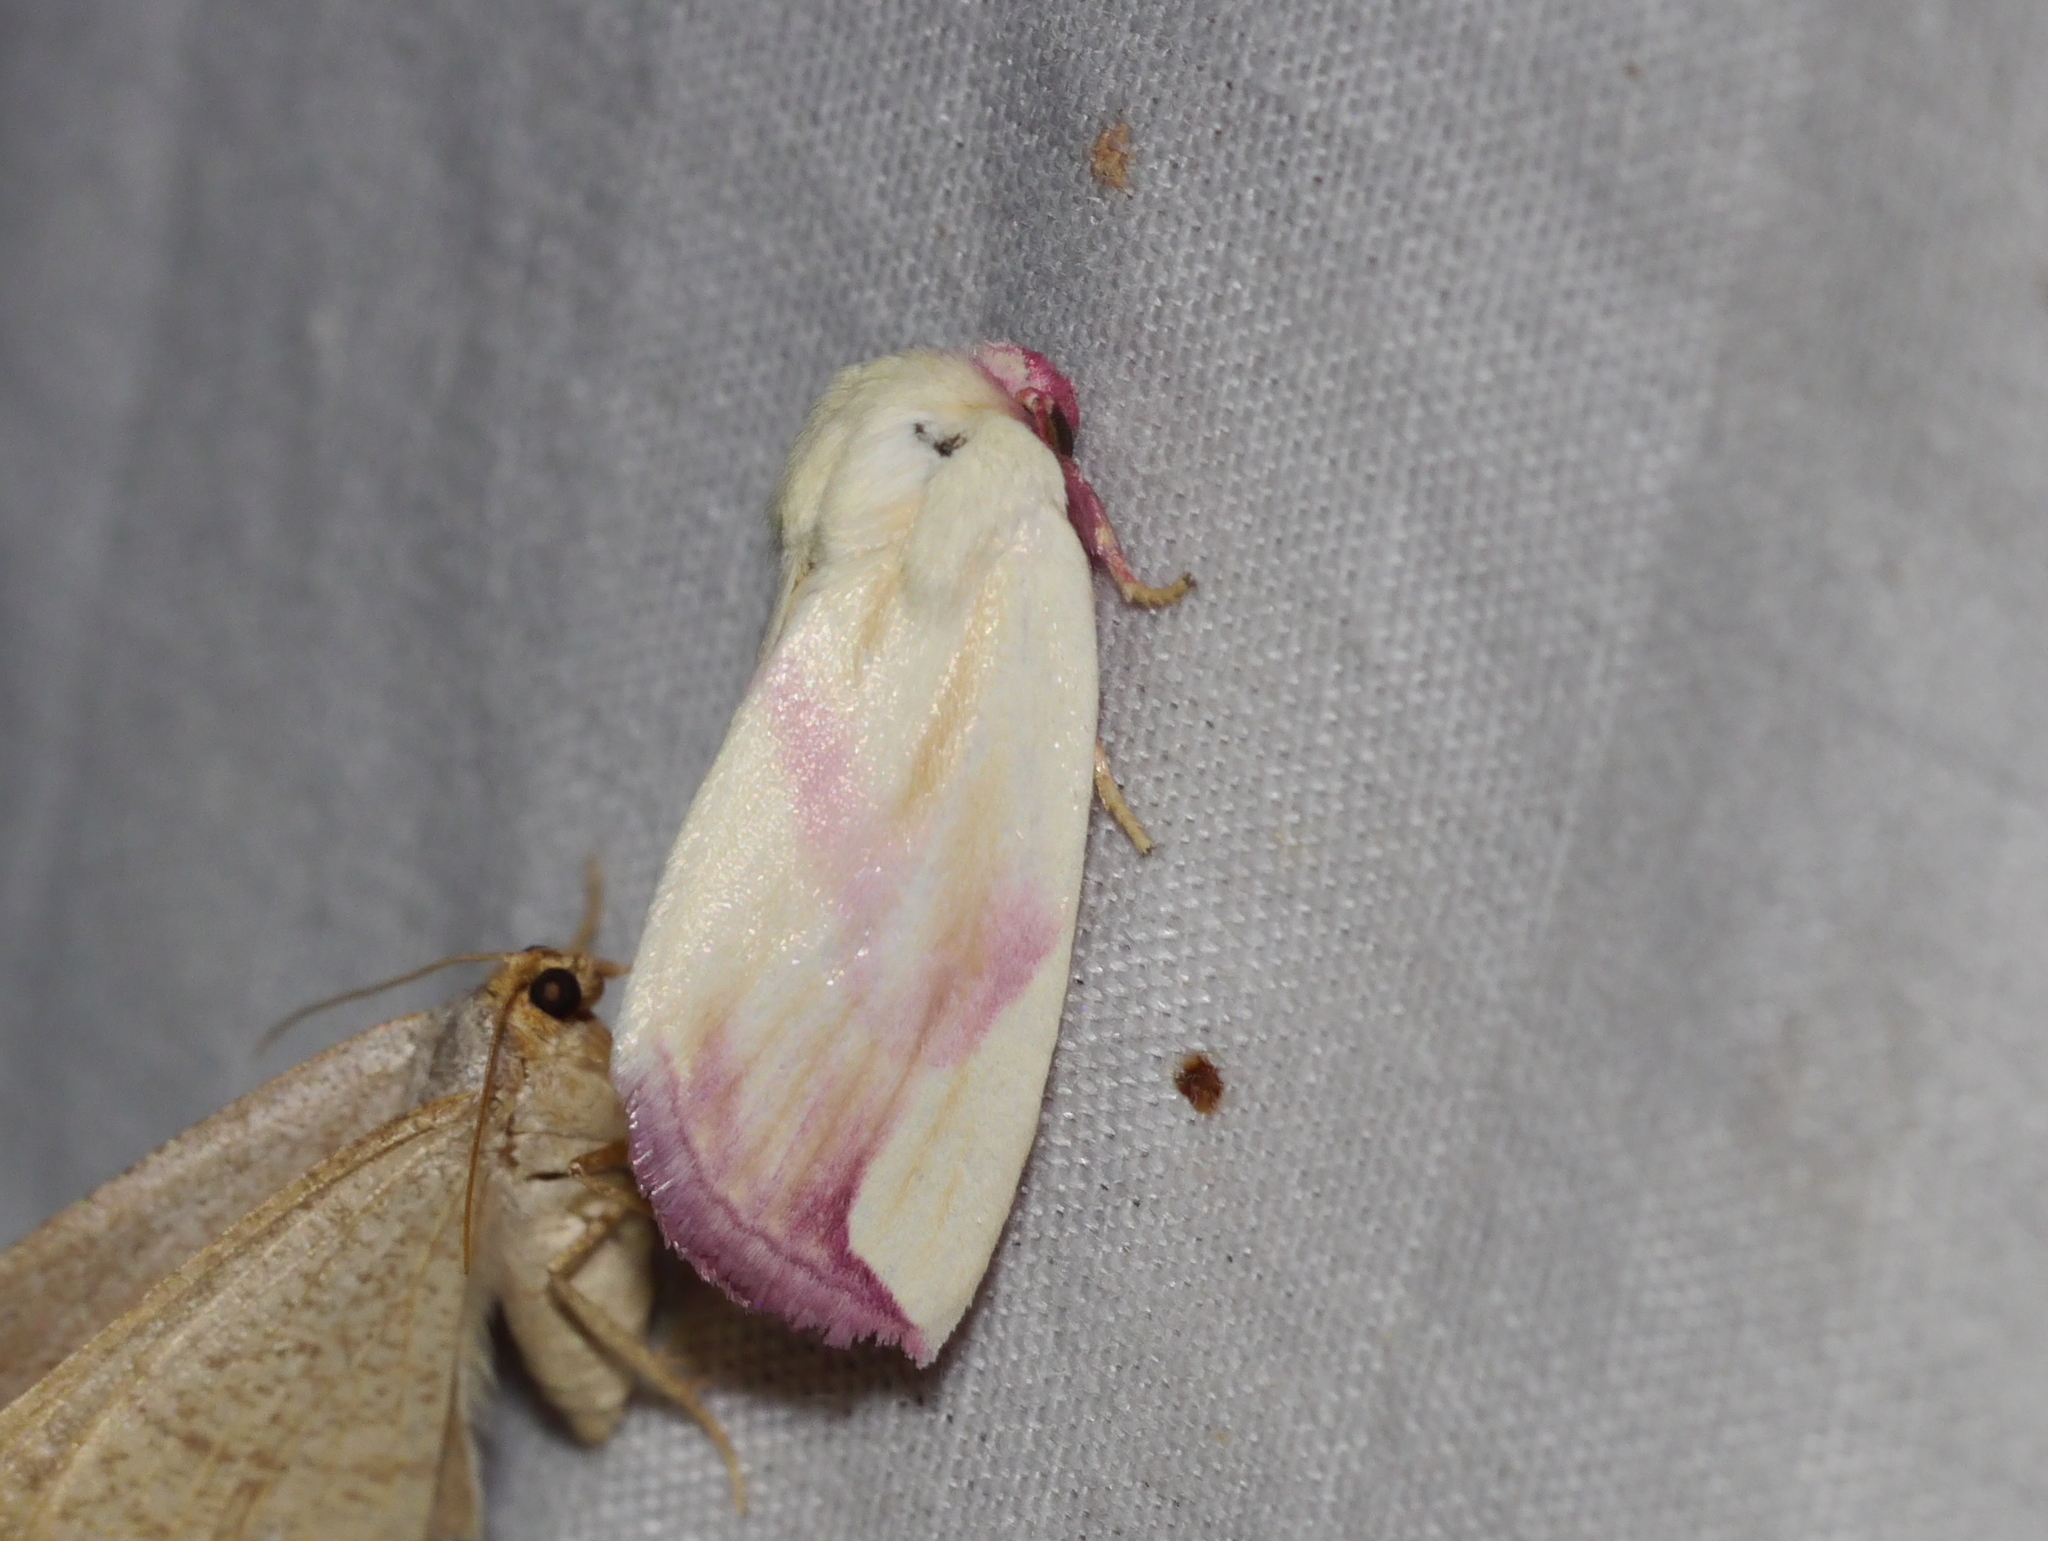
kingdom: Animalia
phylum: Arthropoda
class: Insecta
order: Lepidoptera
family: Noctuidae
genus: Thurberiphaga
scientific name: Thurberiphaga diffusa
